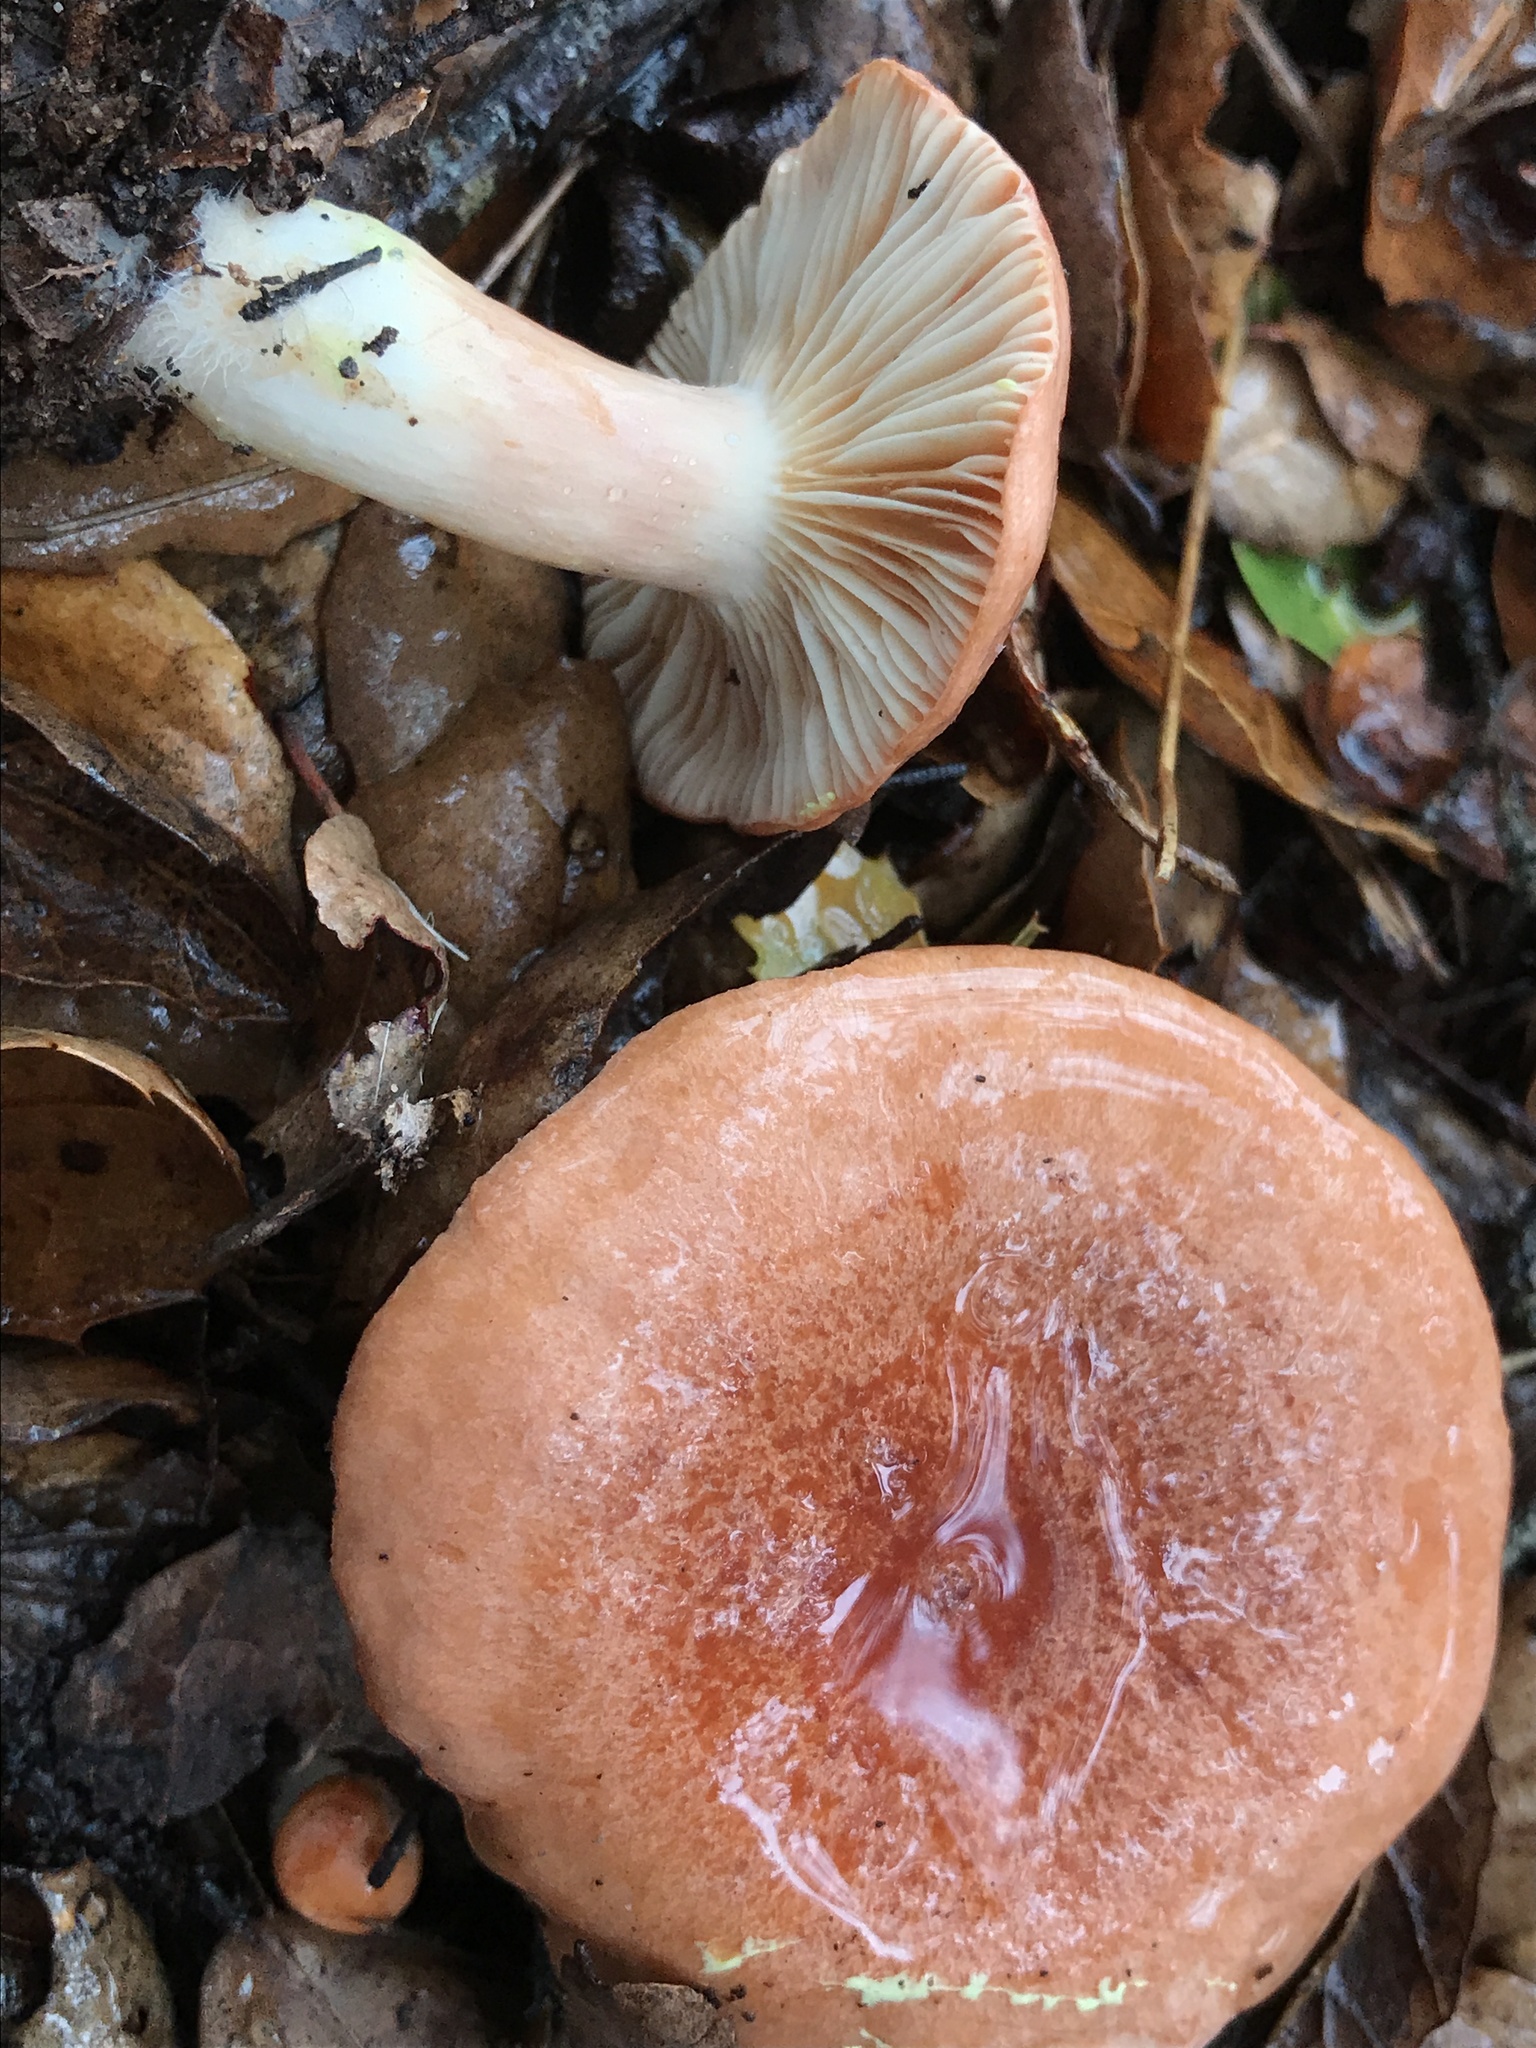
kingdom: Fungi
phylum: Basidiomycota
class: Agaricomycetes
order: Russulales
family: Russulaceae
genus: Lactarius
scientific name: Lactarius xanthogalactus
